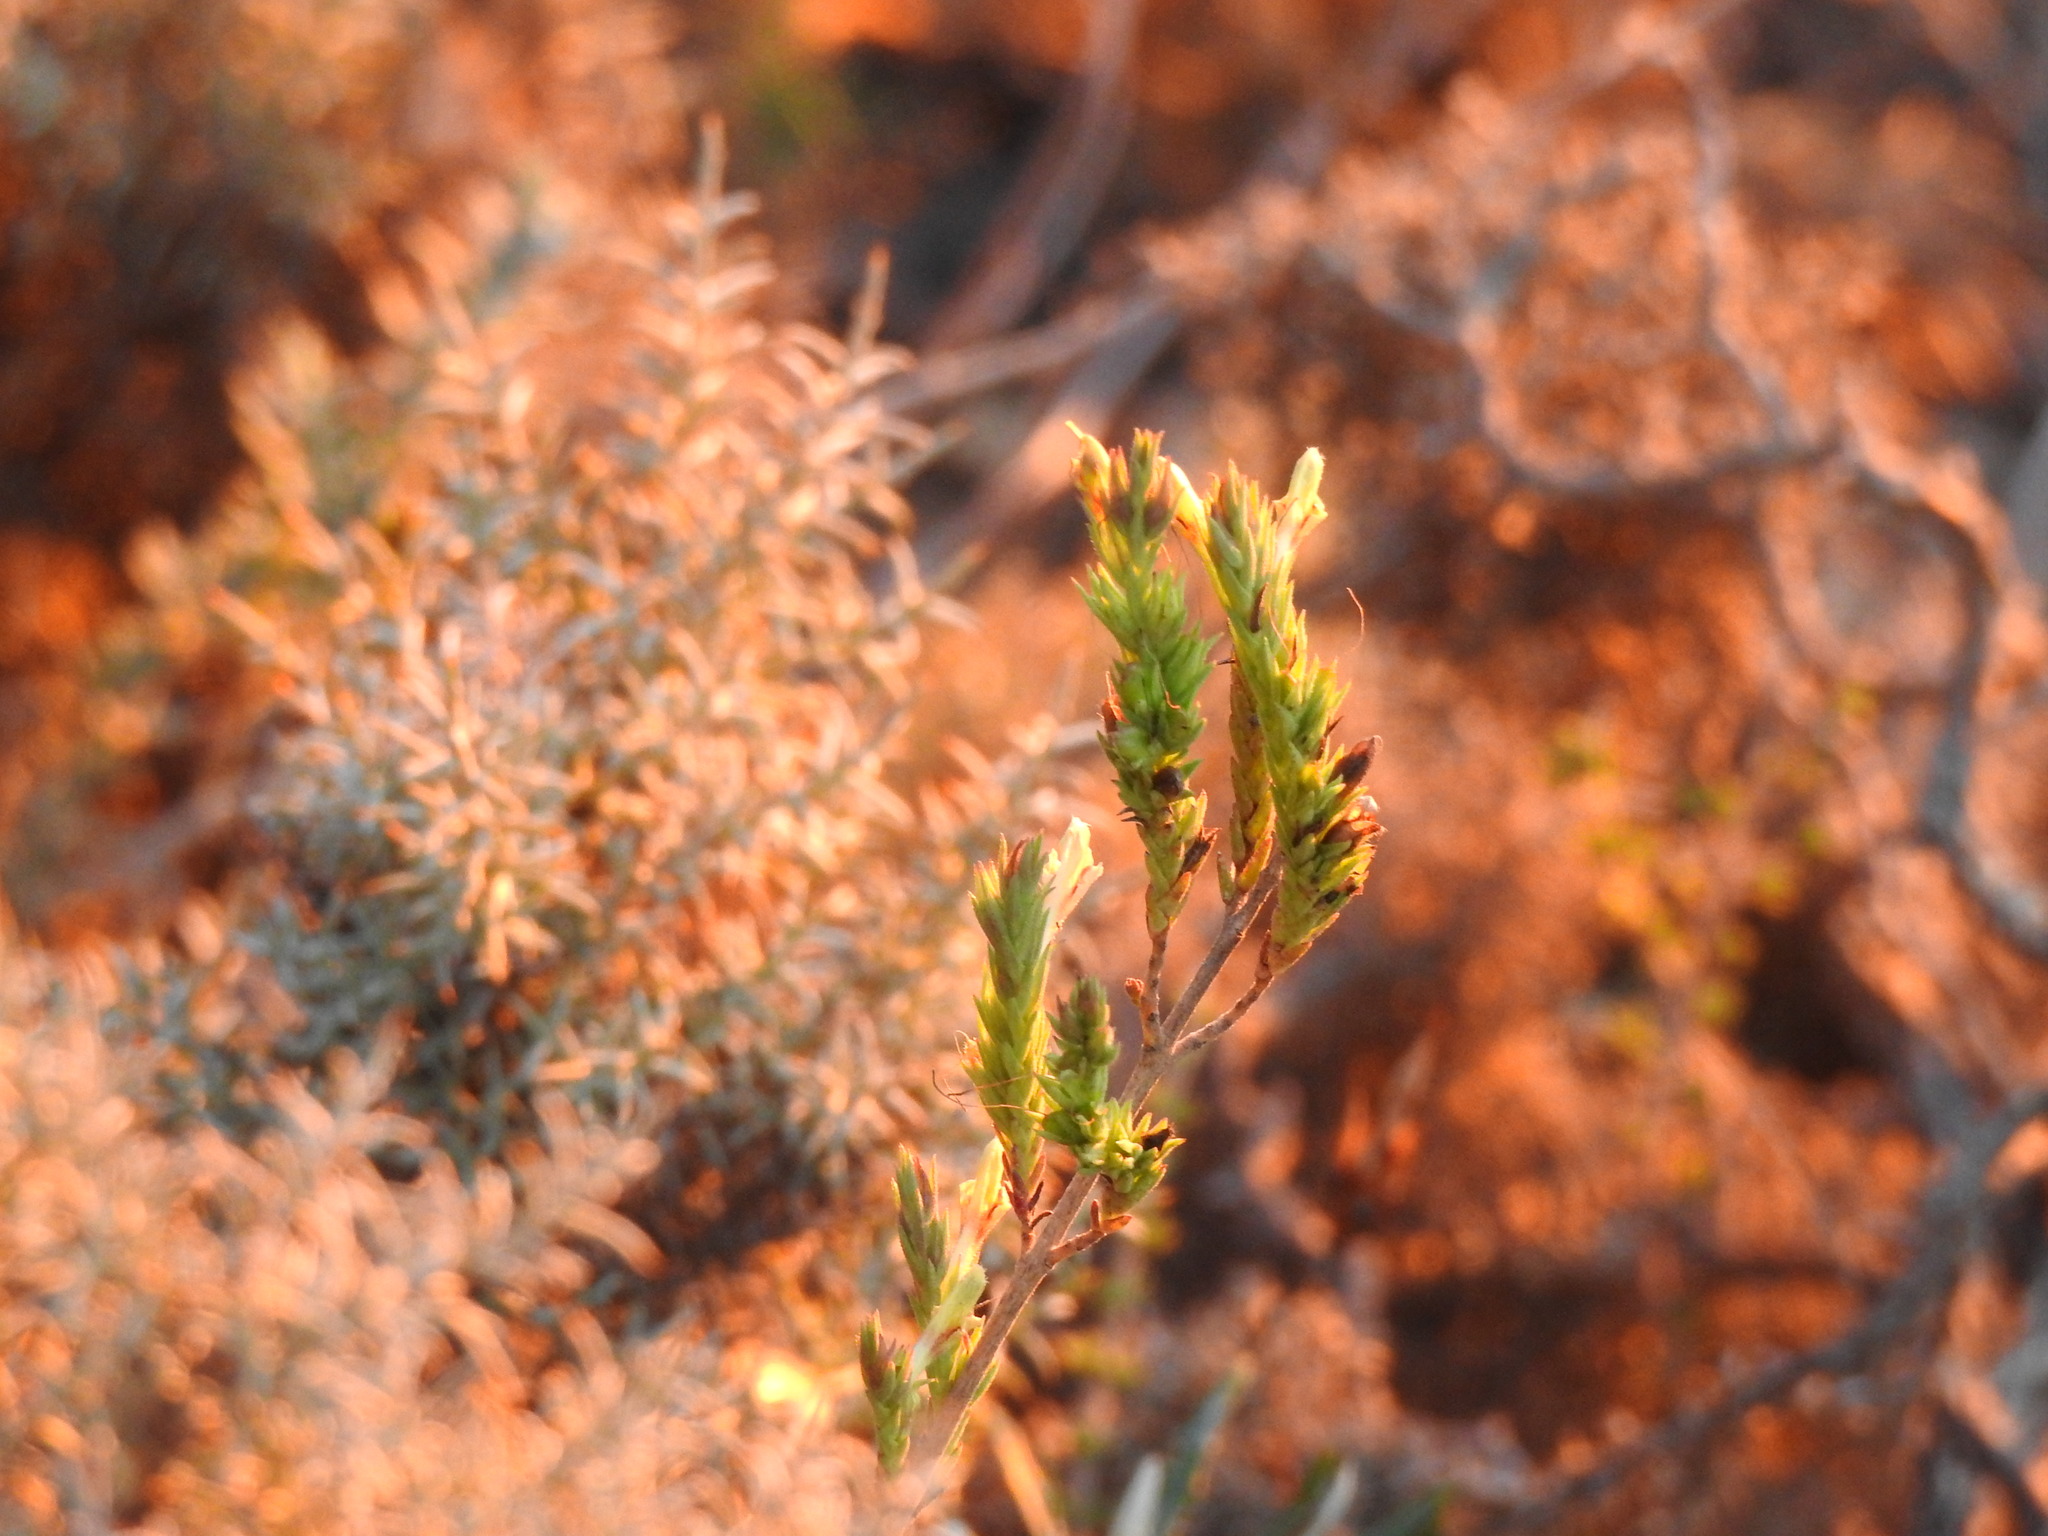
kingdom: Plantae
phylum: Tracheophyta
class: Magnoliopsida
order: Lamiales
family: Orobanchaceae
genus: Nothobartsia
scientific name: Nothobartsia asperrima
